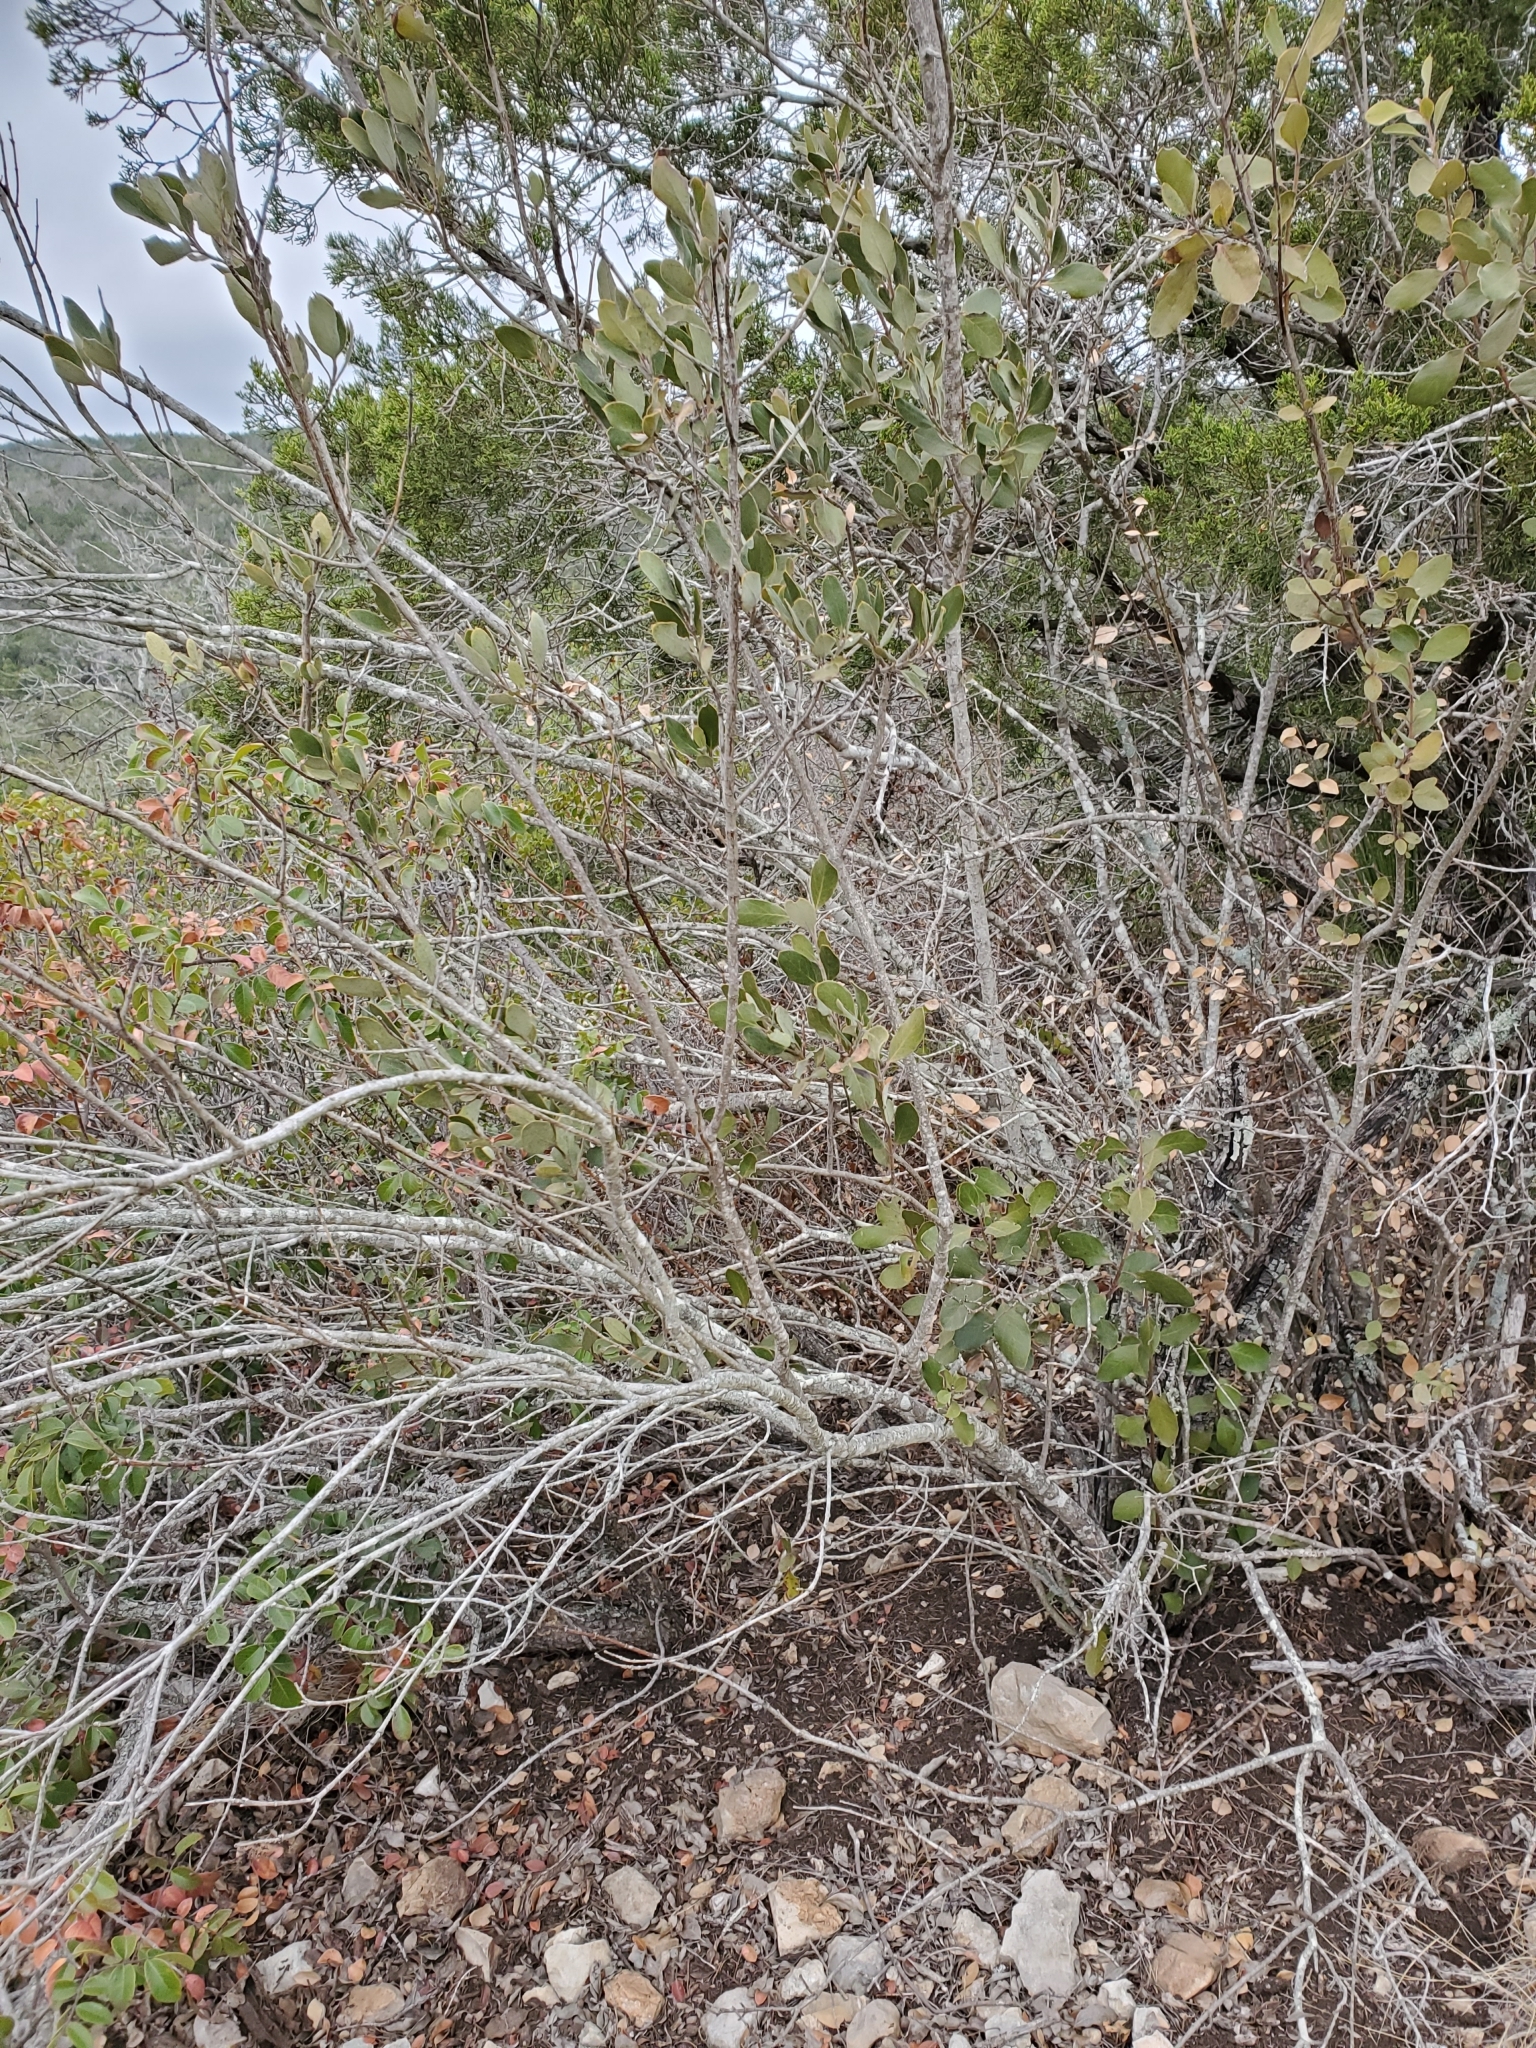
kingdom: Plantae
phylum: Tracheophyta
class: Magnoliopsida
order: Garryales
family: Garryaceae
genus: Garrya
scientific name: Garrya lindheimeri
